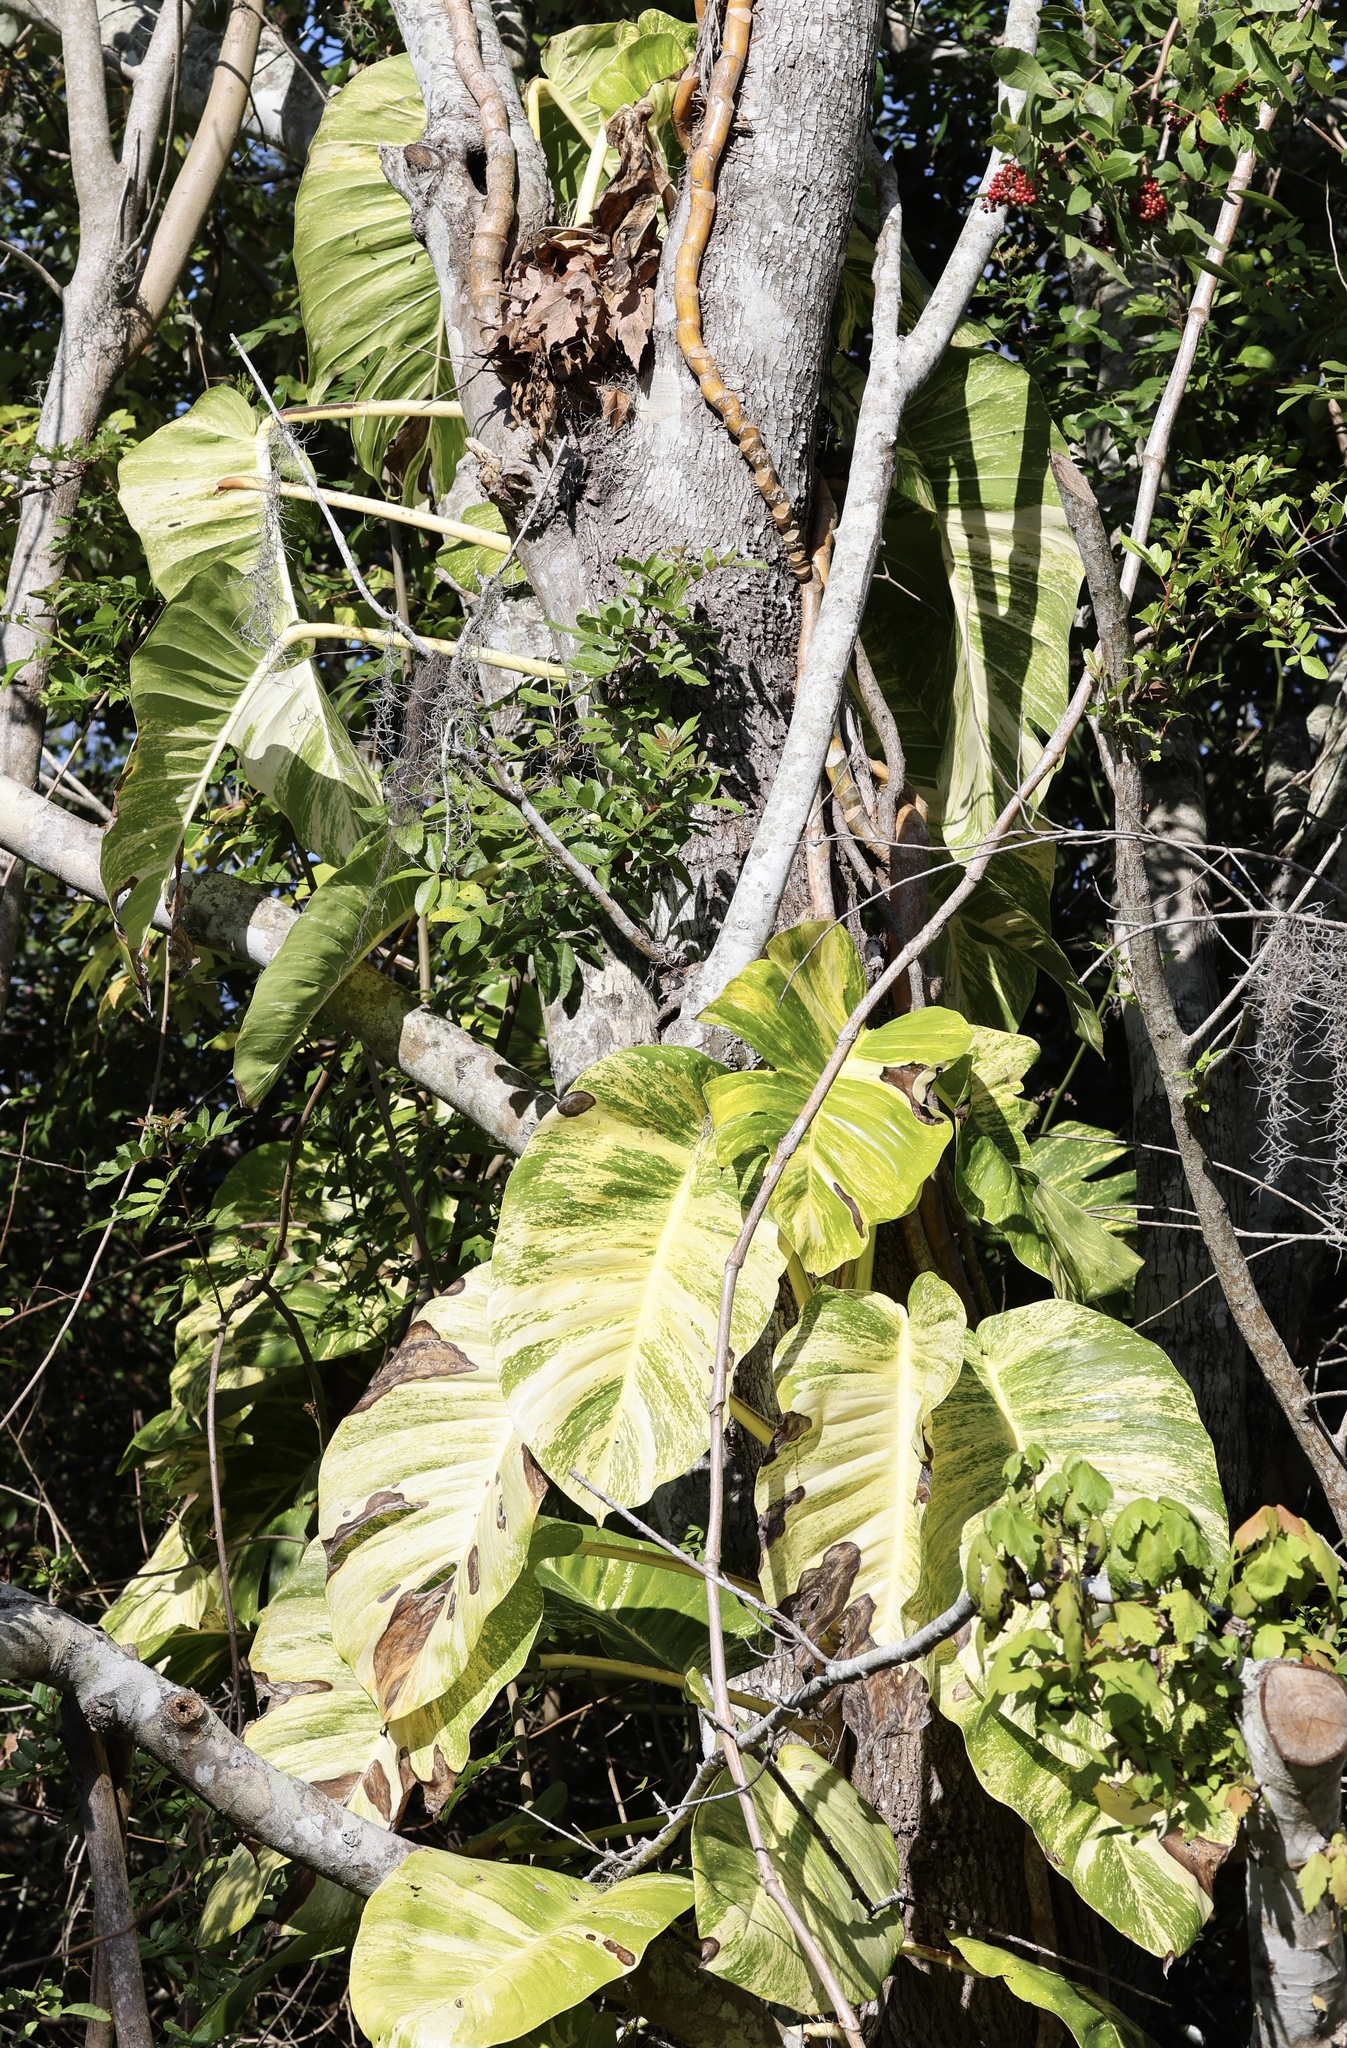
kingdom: Plantae
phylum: Tracheophyta
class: Liliopsida
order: Alismatales
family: Araceae
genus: Epipremnum
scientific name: Epipremnum aureum
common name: Golden hunter's-robe
